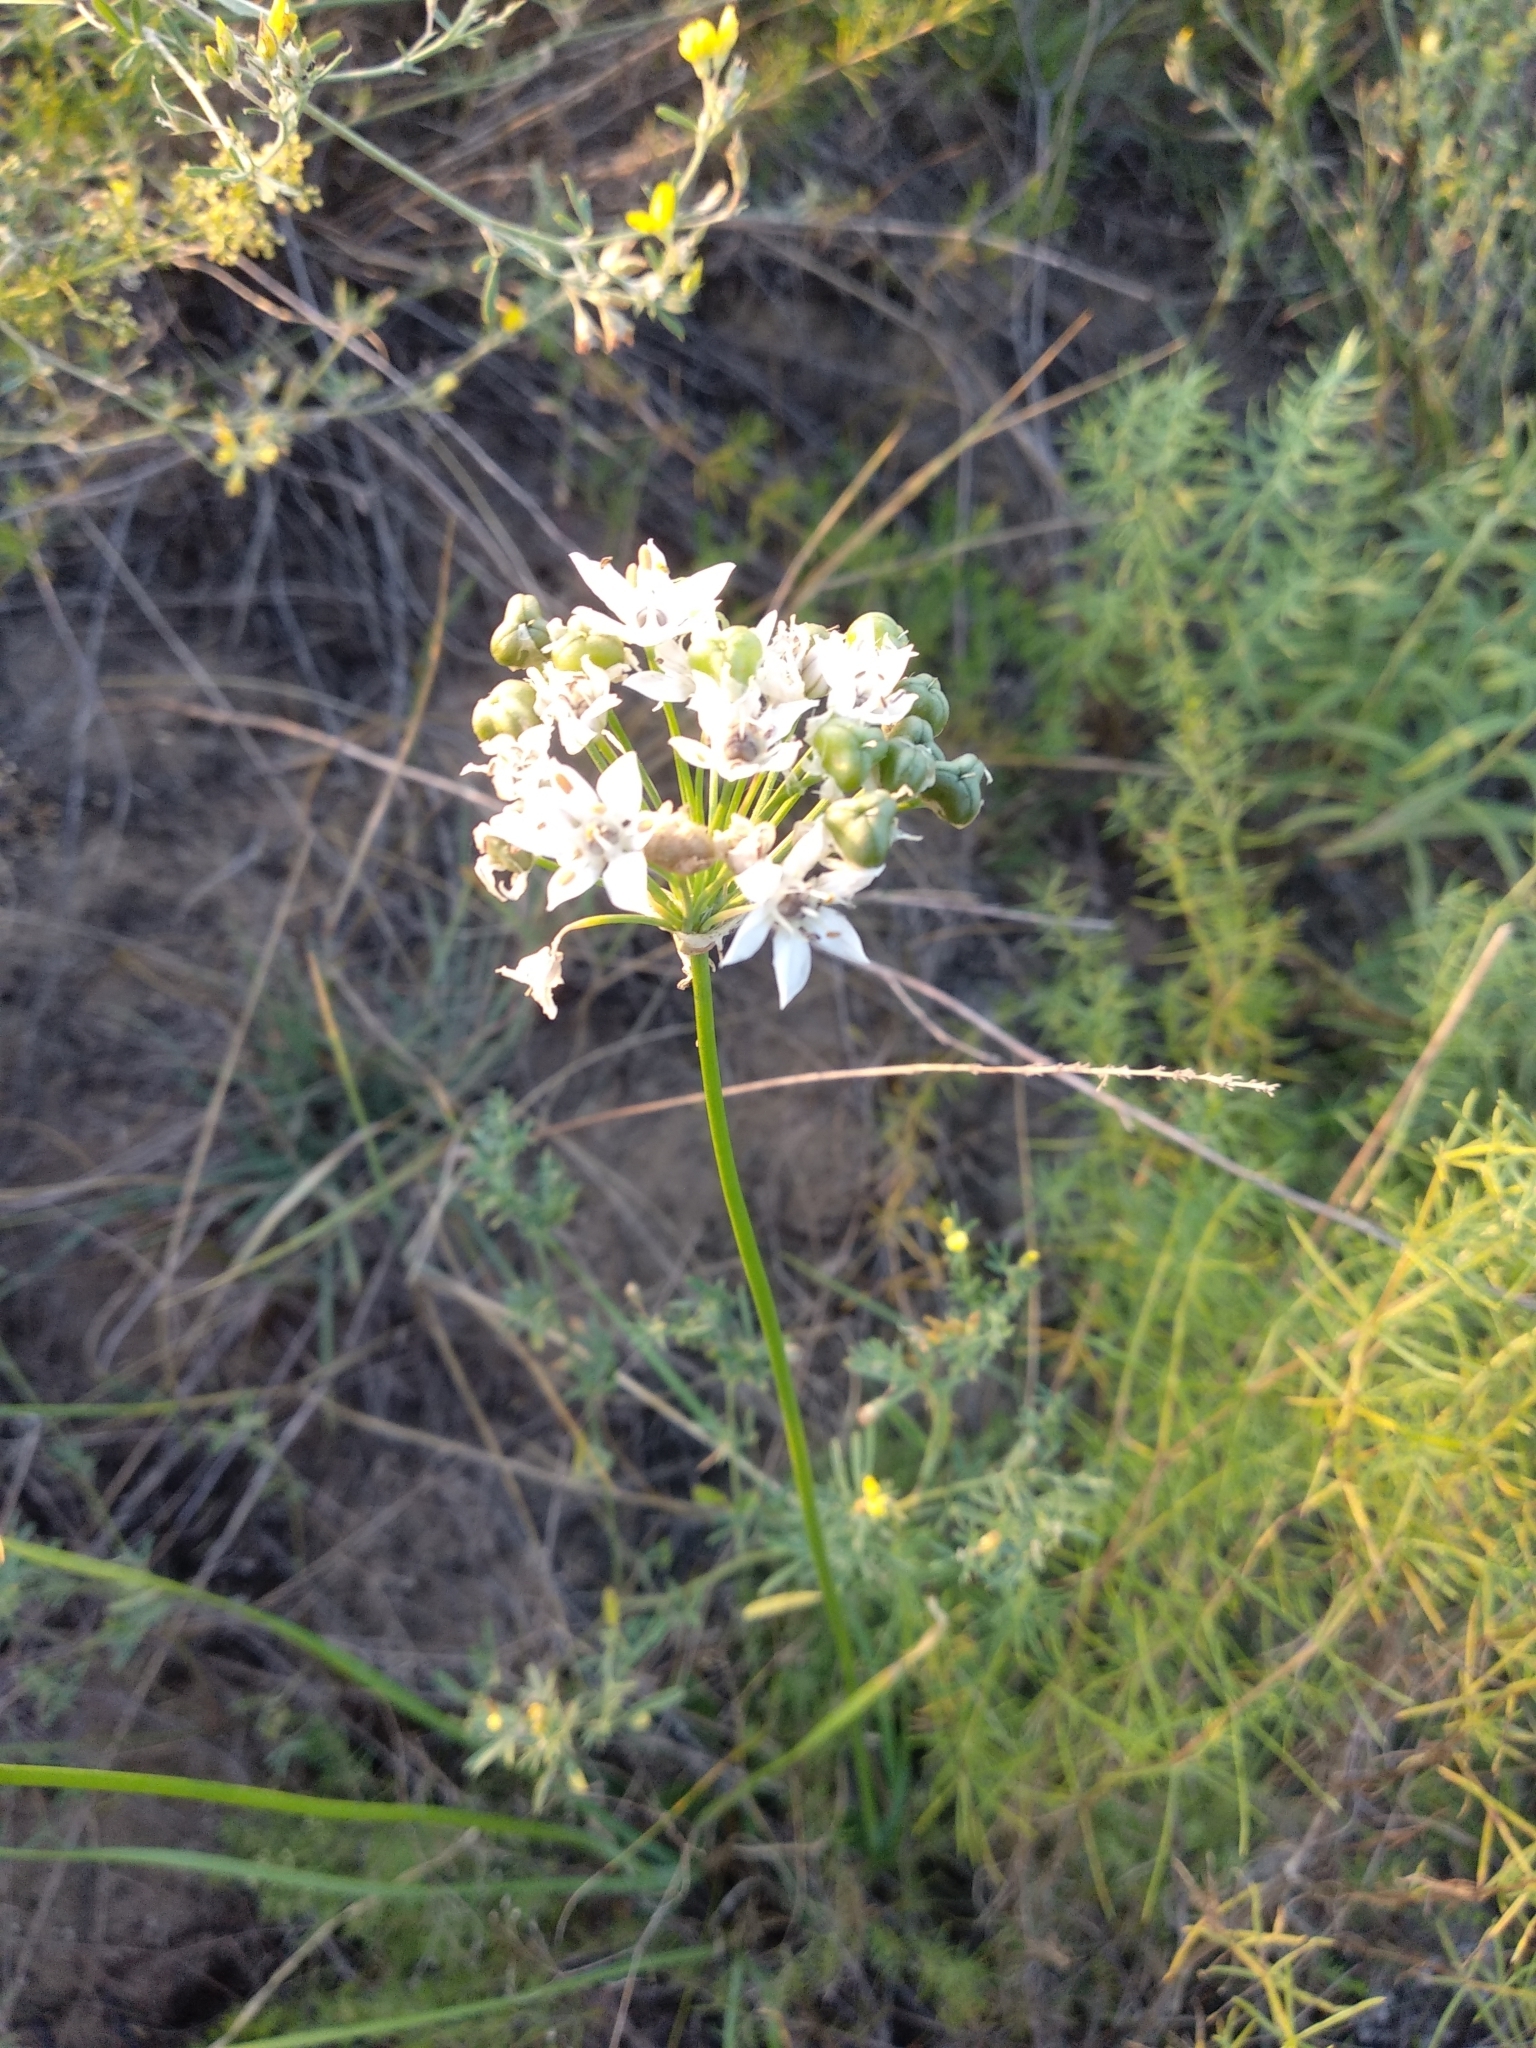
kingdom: Plantae
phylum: Tracheophyta
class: Liliopsida
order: Asparagales
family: Amaryllidaceae
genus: Allium
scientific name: Allium ramosum
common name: Fragrant garlic
